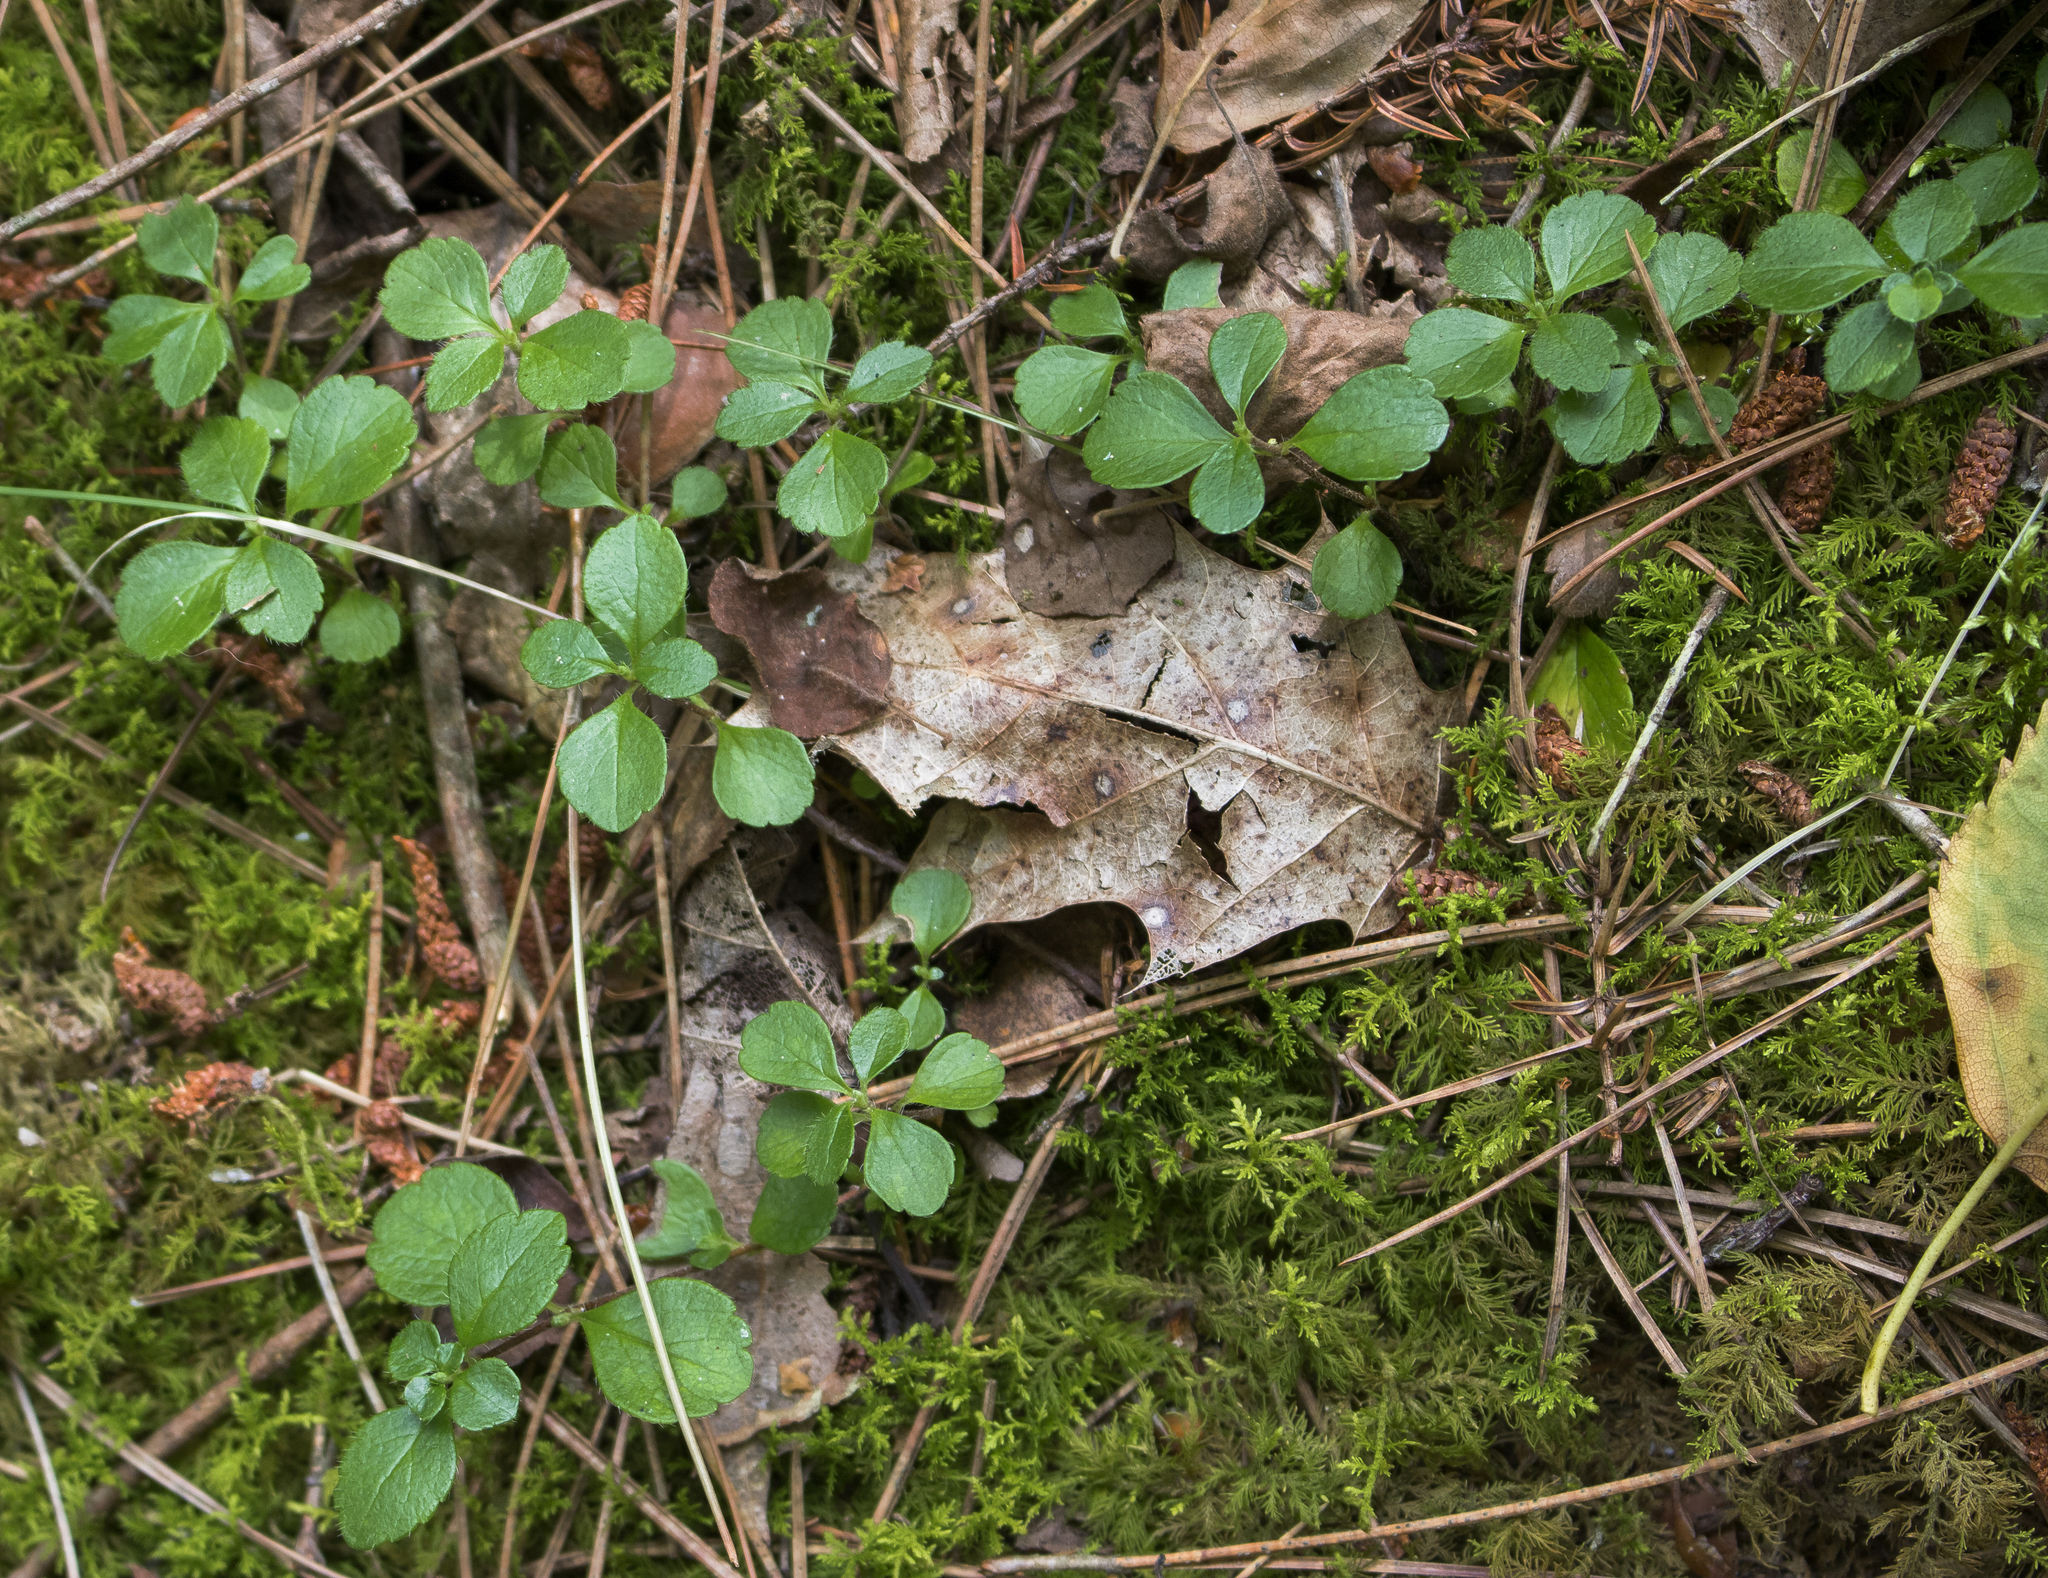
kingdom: Plantae
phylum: Tracheophyta
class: Magnoliopsida
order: Dipsacales
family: Caprifoliaceae
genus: Linnaea
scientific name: Linnaea borealis
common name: Twinflower
